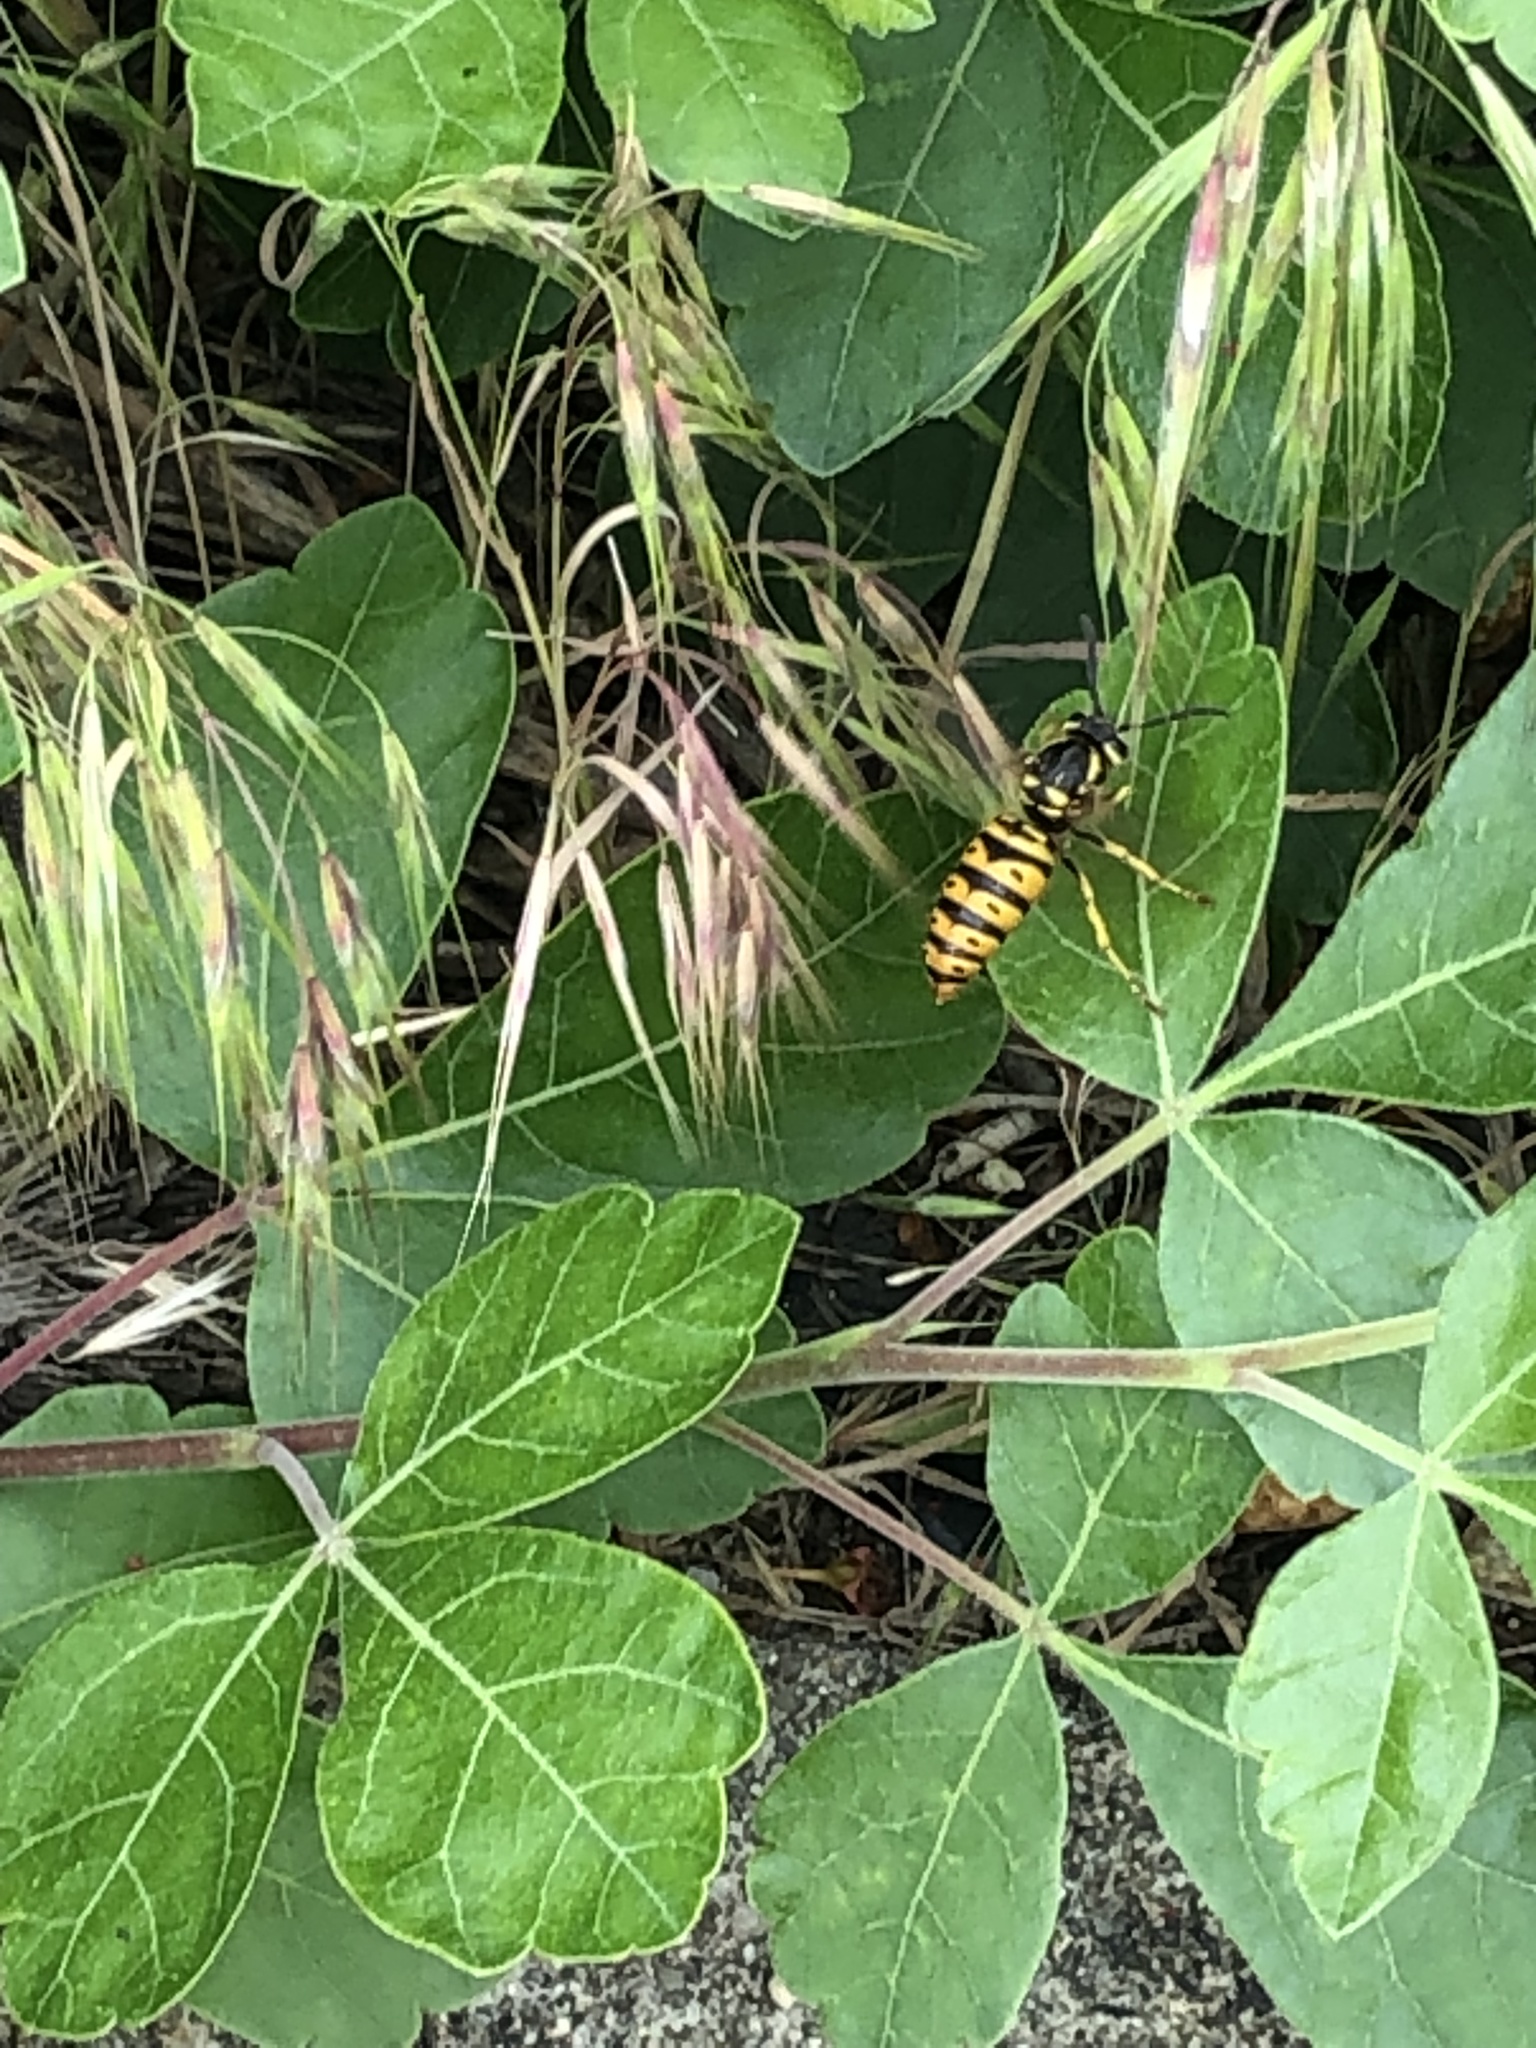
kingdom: Animalia
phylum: Arthropoda
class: Insecta
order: Hymenoptera
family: Vespidae
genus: Vespula
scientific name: Vespula maculifrons
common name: Eastern yellowjacket
